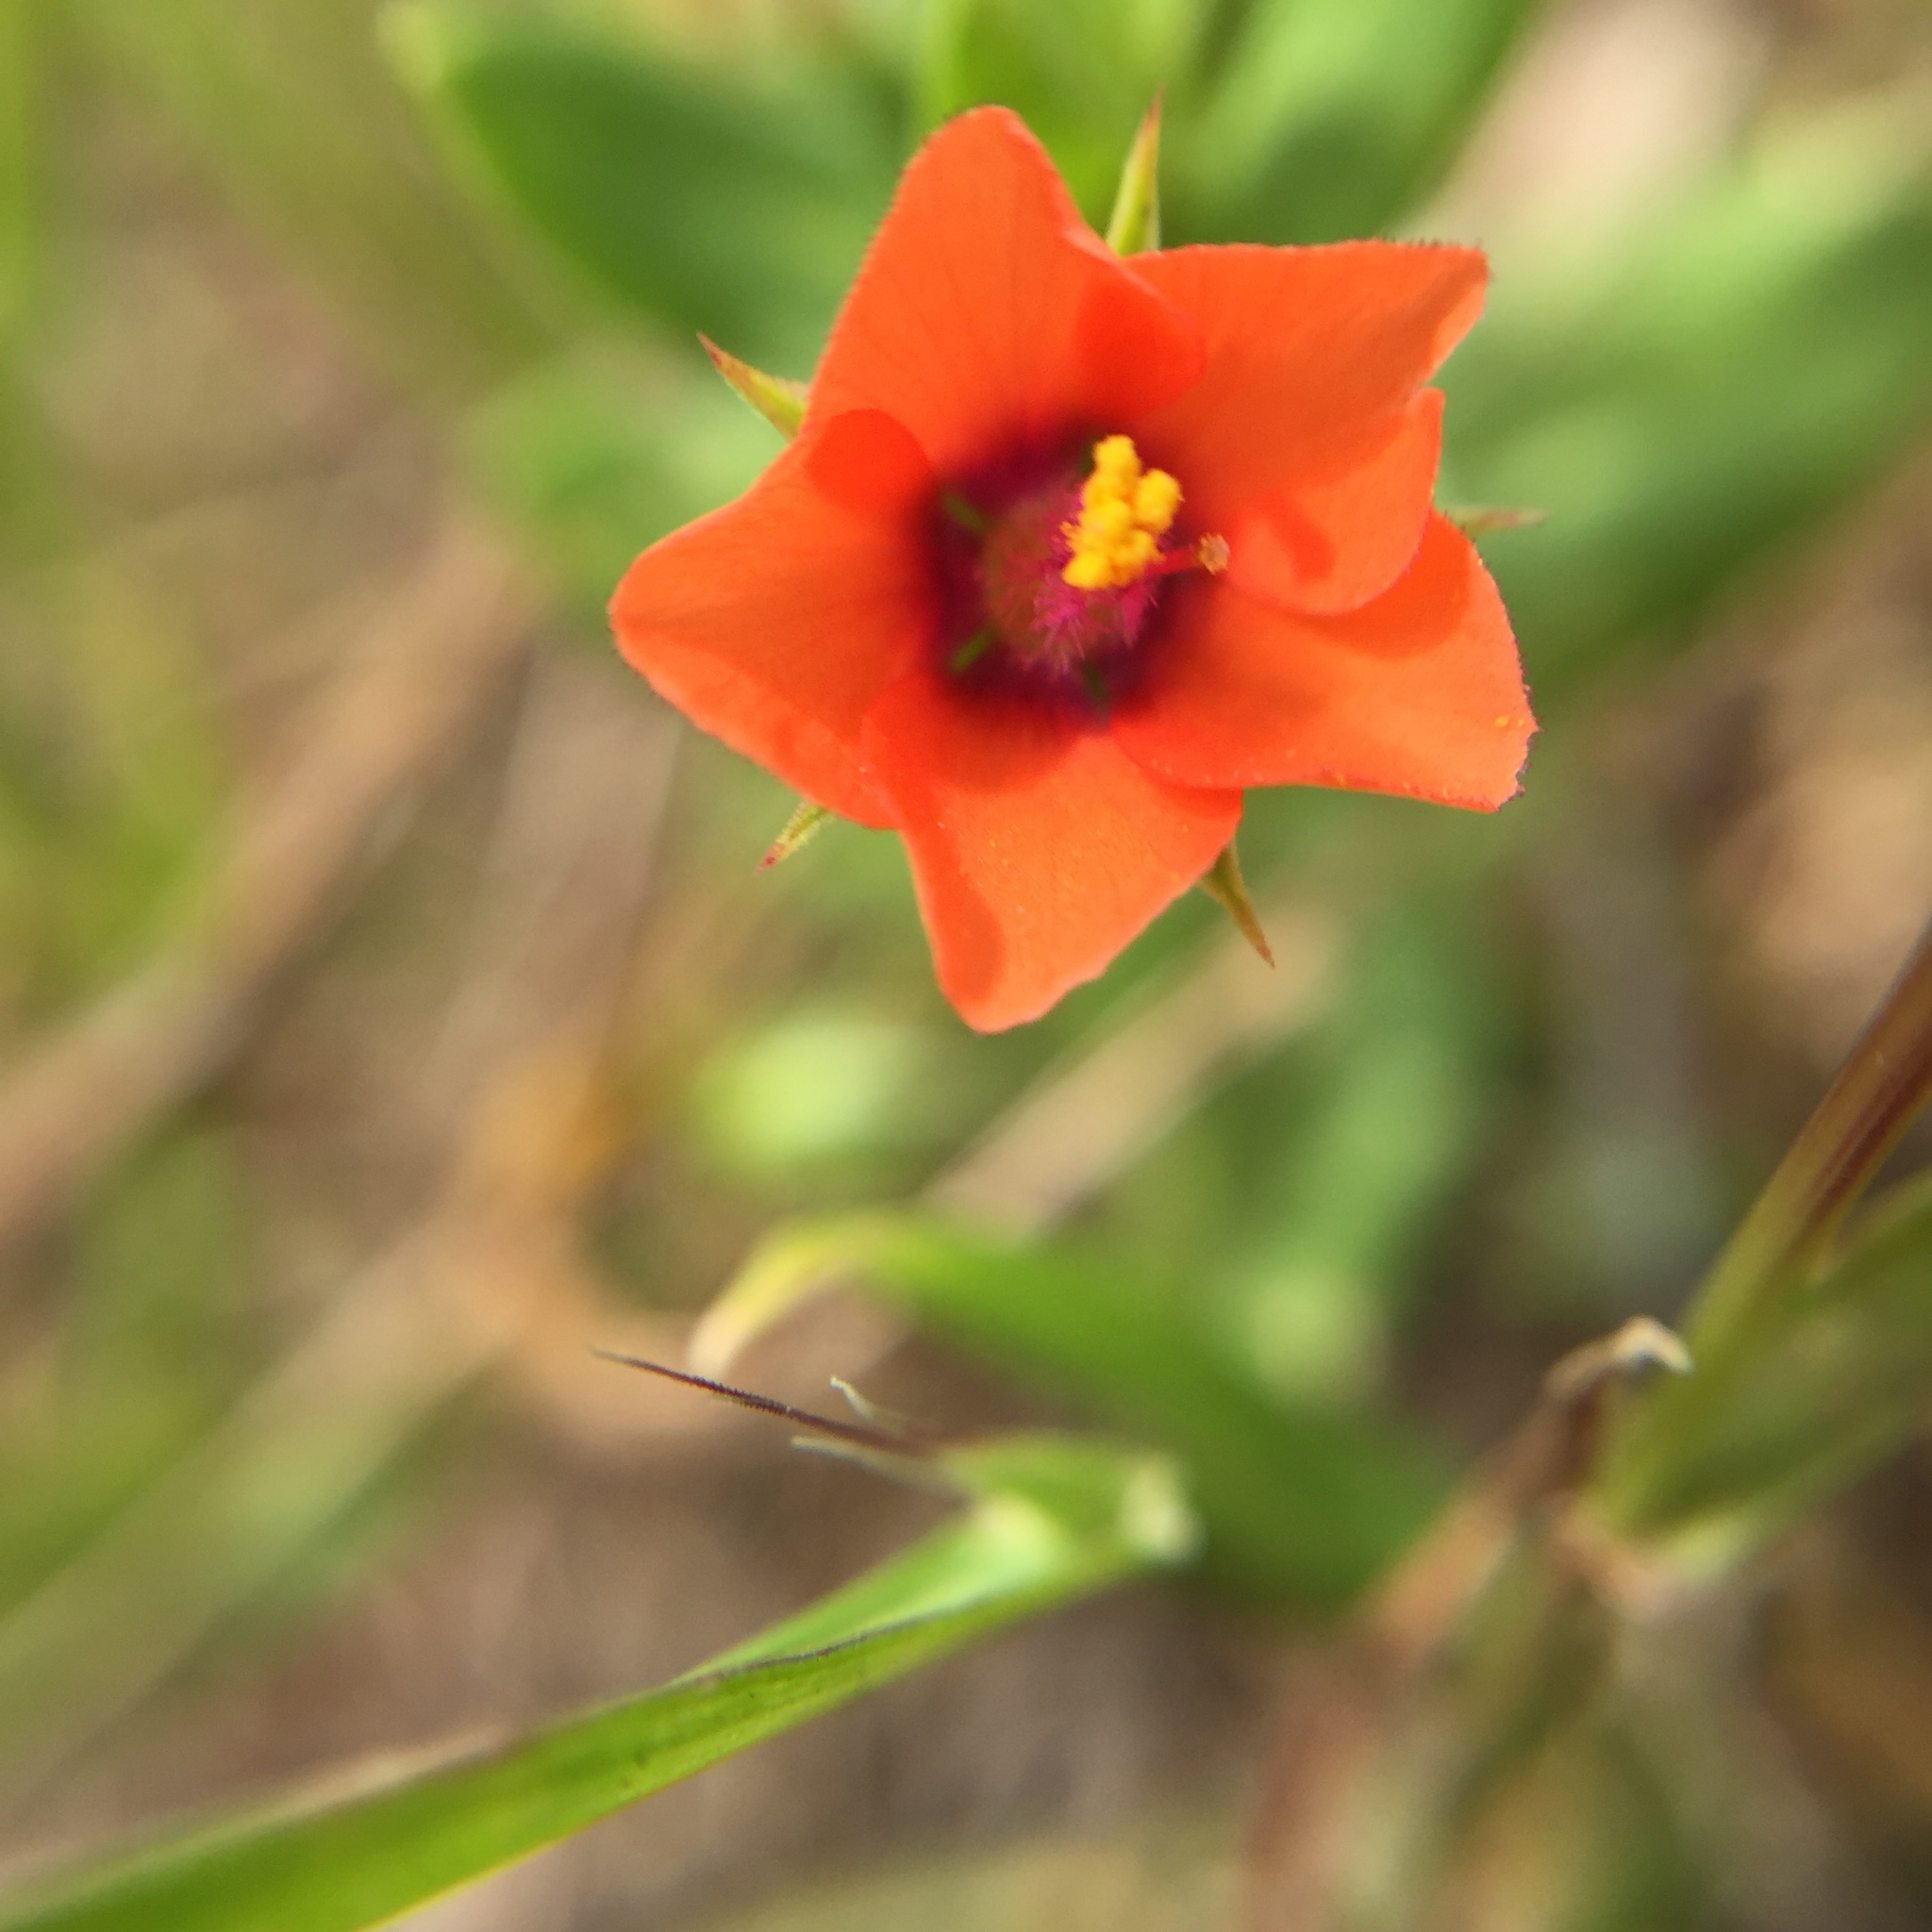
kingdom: Plantae
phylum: Tracheophyta
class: Magnoliopsida
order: Ericales
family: Primulaceae
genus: Lysimachia
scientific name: Lysimachia arvensis
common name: Scarlet pimpernel
